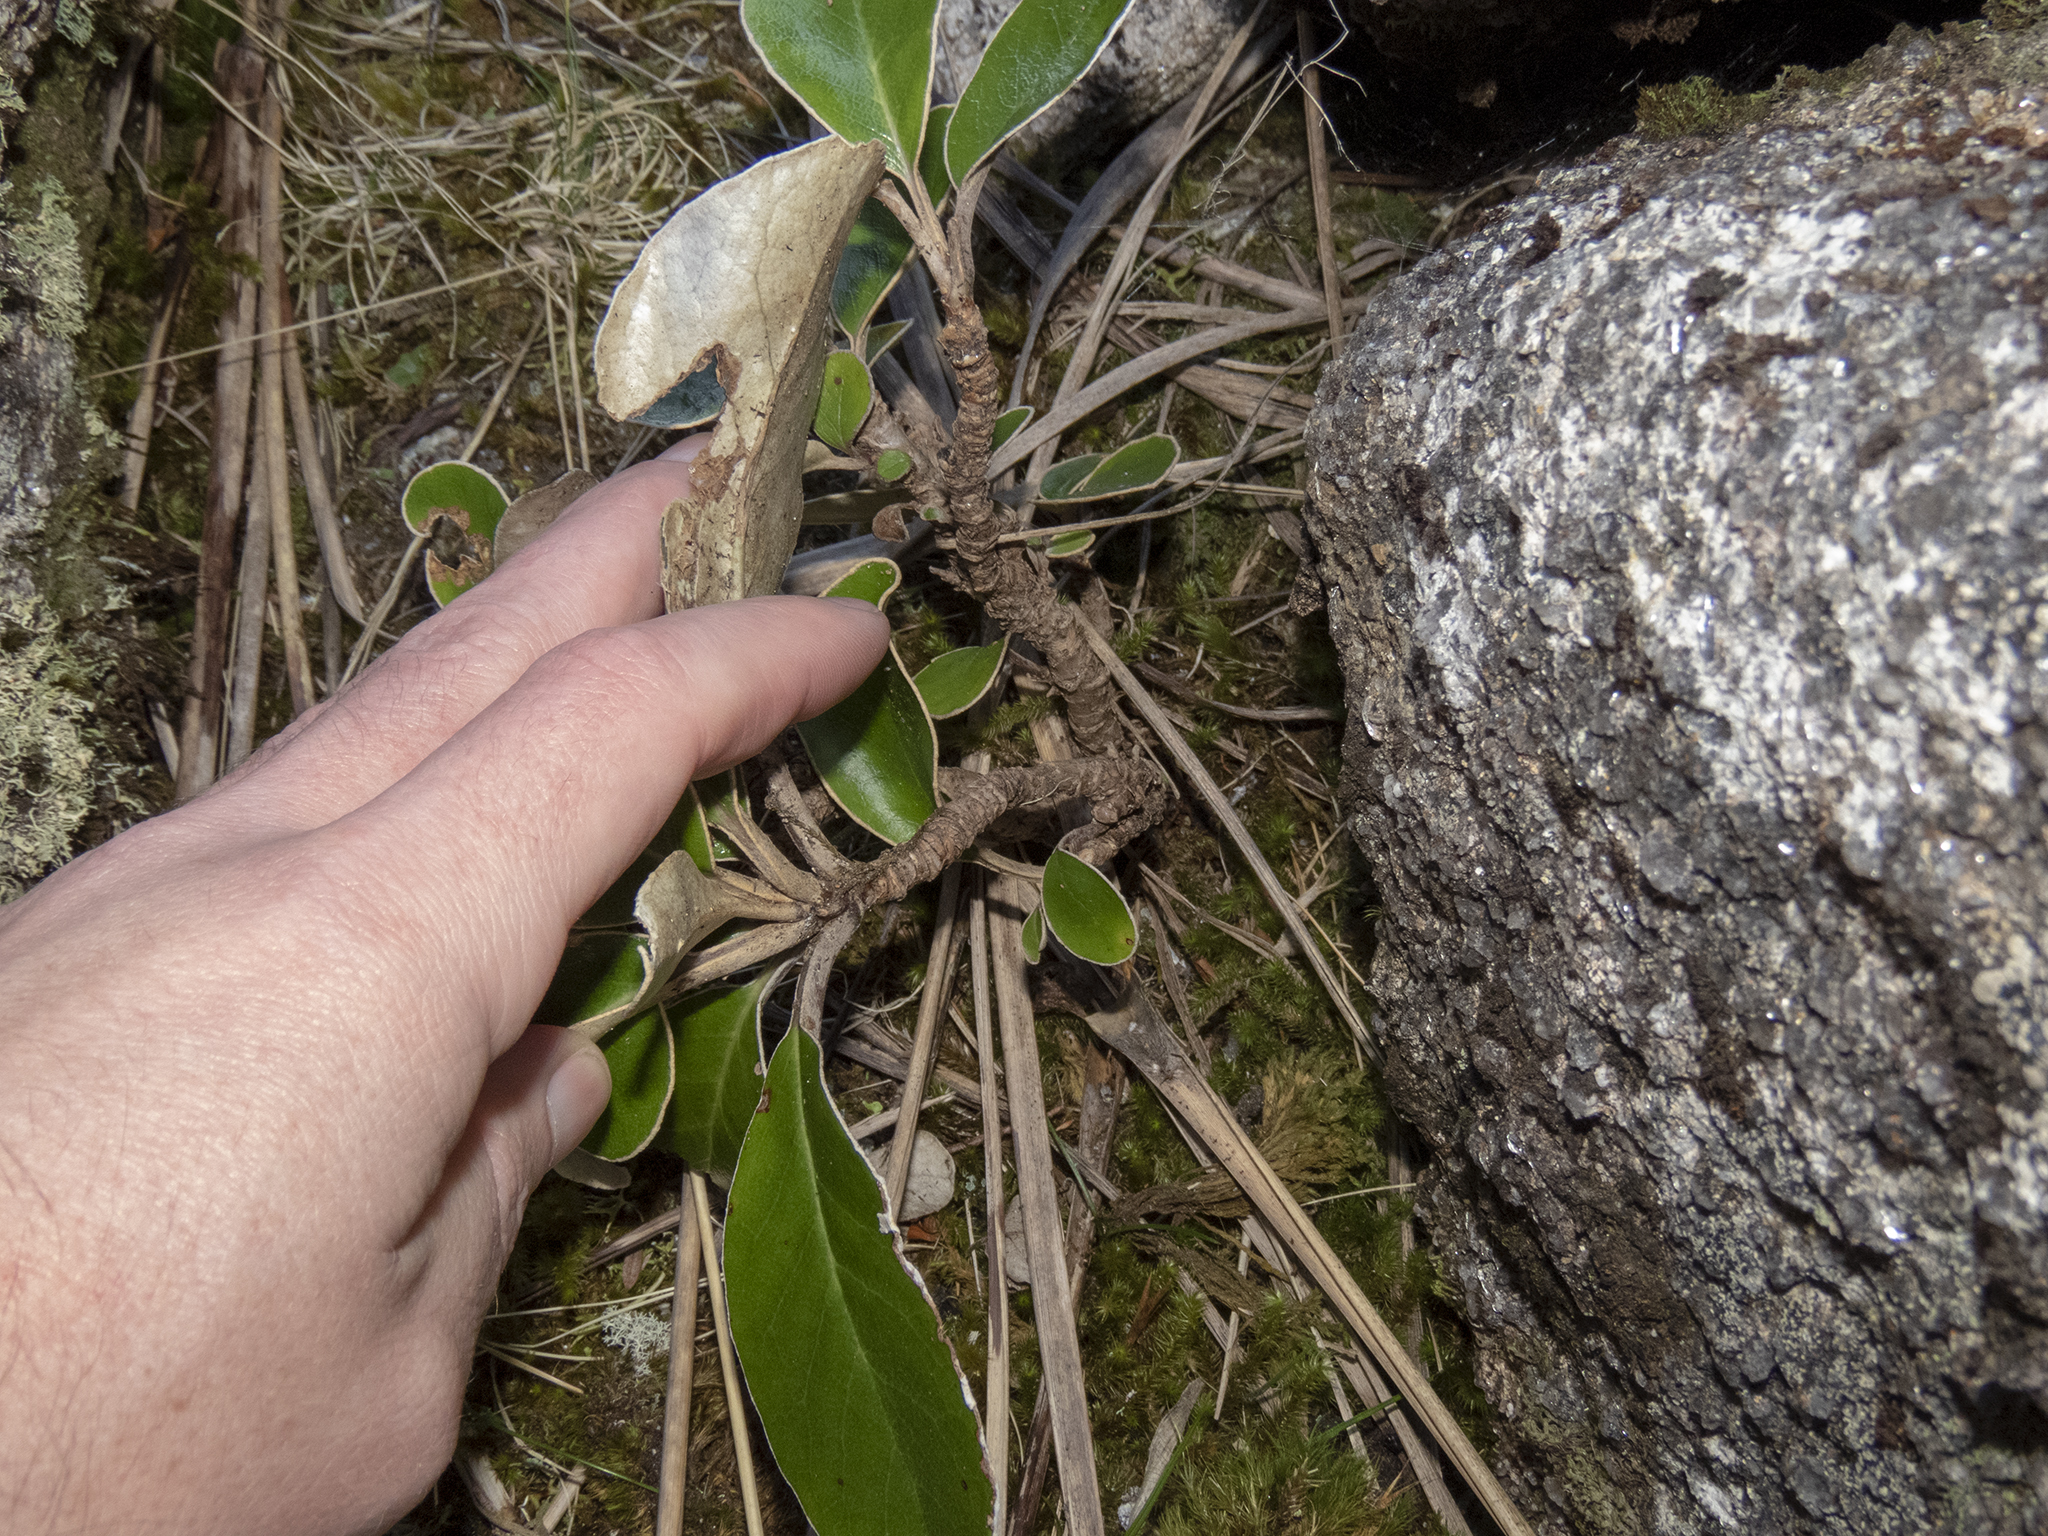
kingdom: Plantae
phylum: Tracheophyta
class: Magnoliopsida
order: Asterales
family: Asteraceae
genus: Brachyglottis
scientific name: Brachyglottis elaeagnifolia
